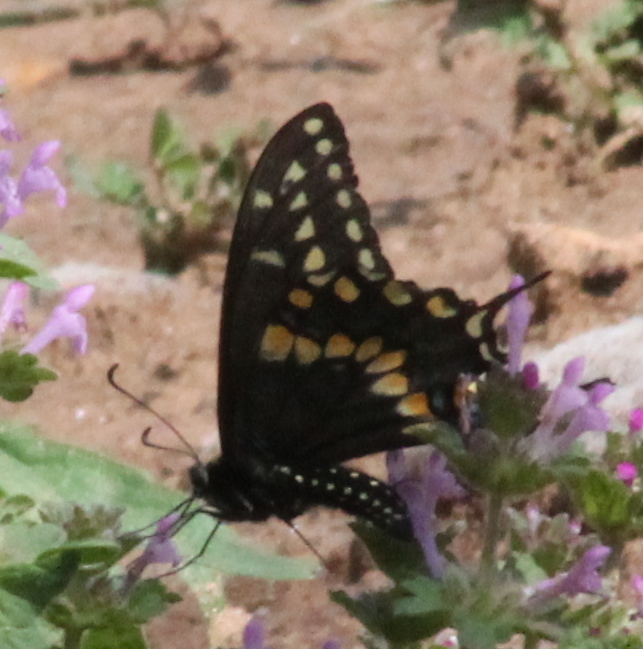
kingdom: Animalia
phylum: Arthropoda
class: Insecta
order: Lepidoptera
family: Papilionidae
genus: Papilio
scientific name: Papilio polyxenes
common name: Black swallowtail
